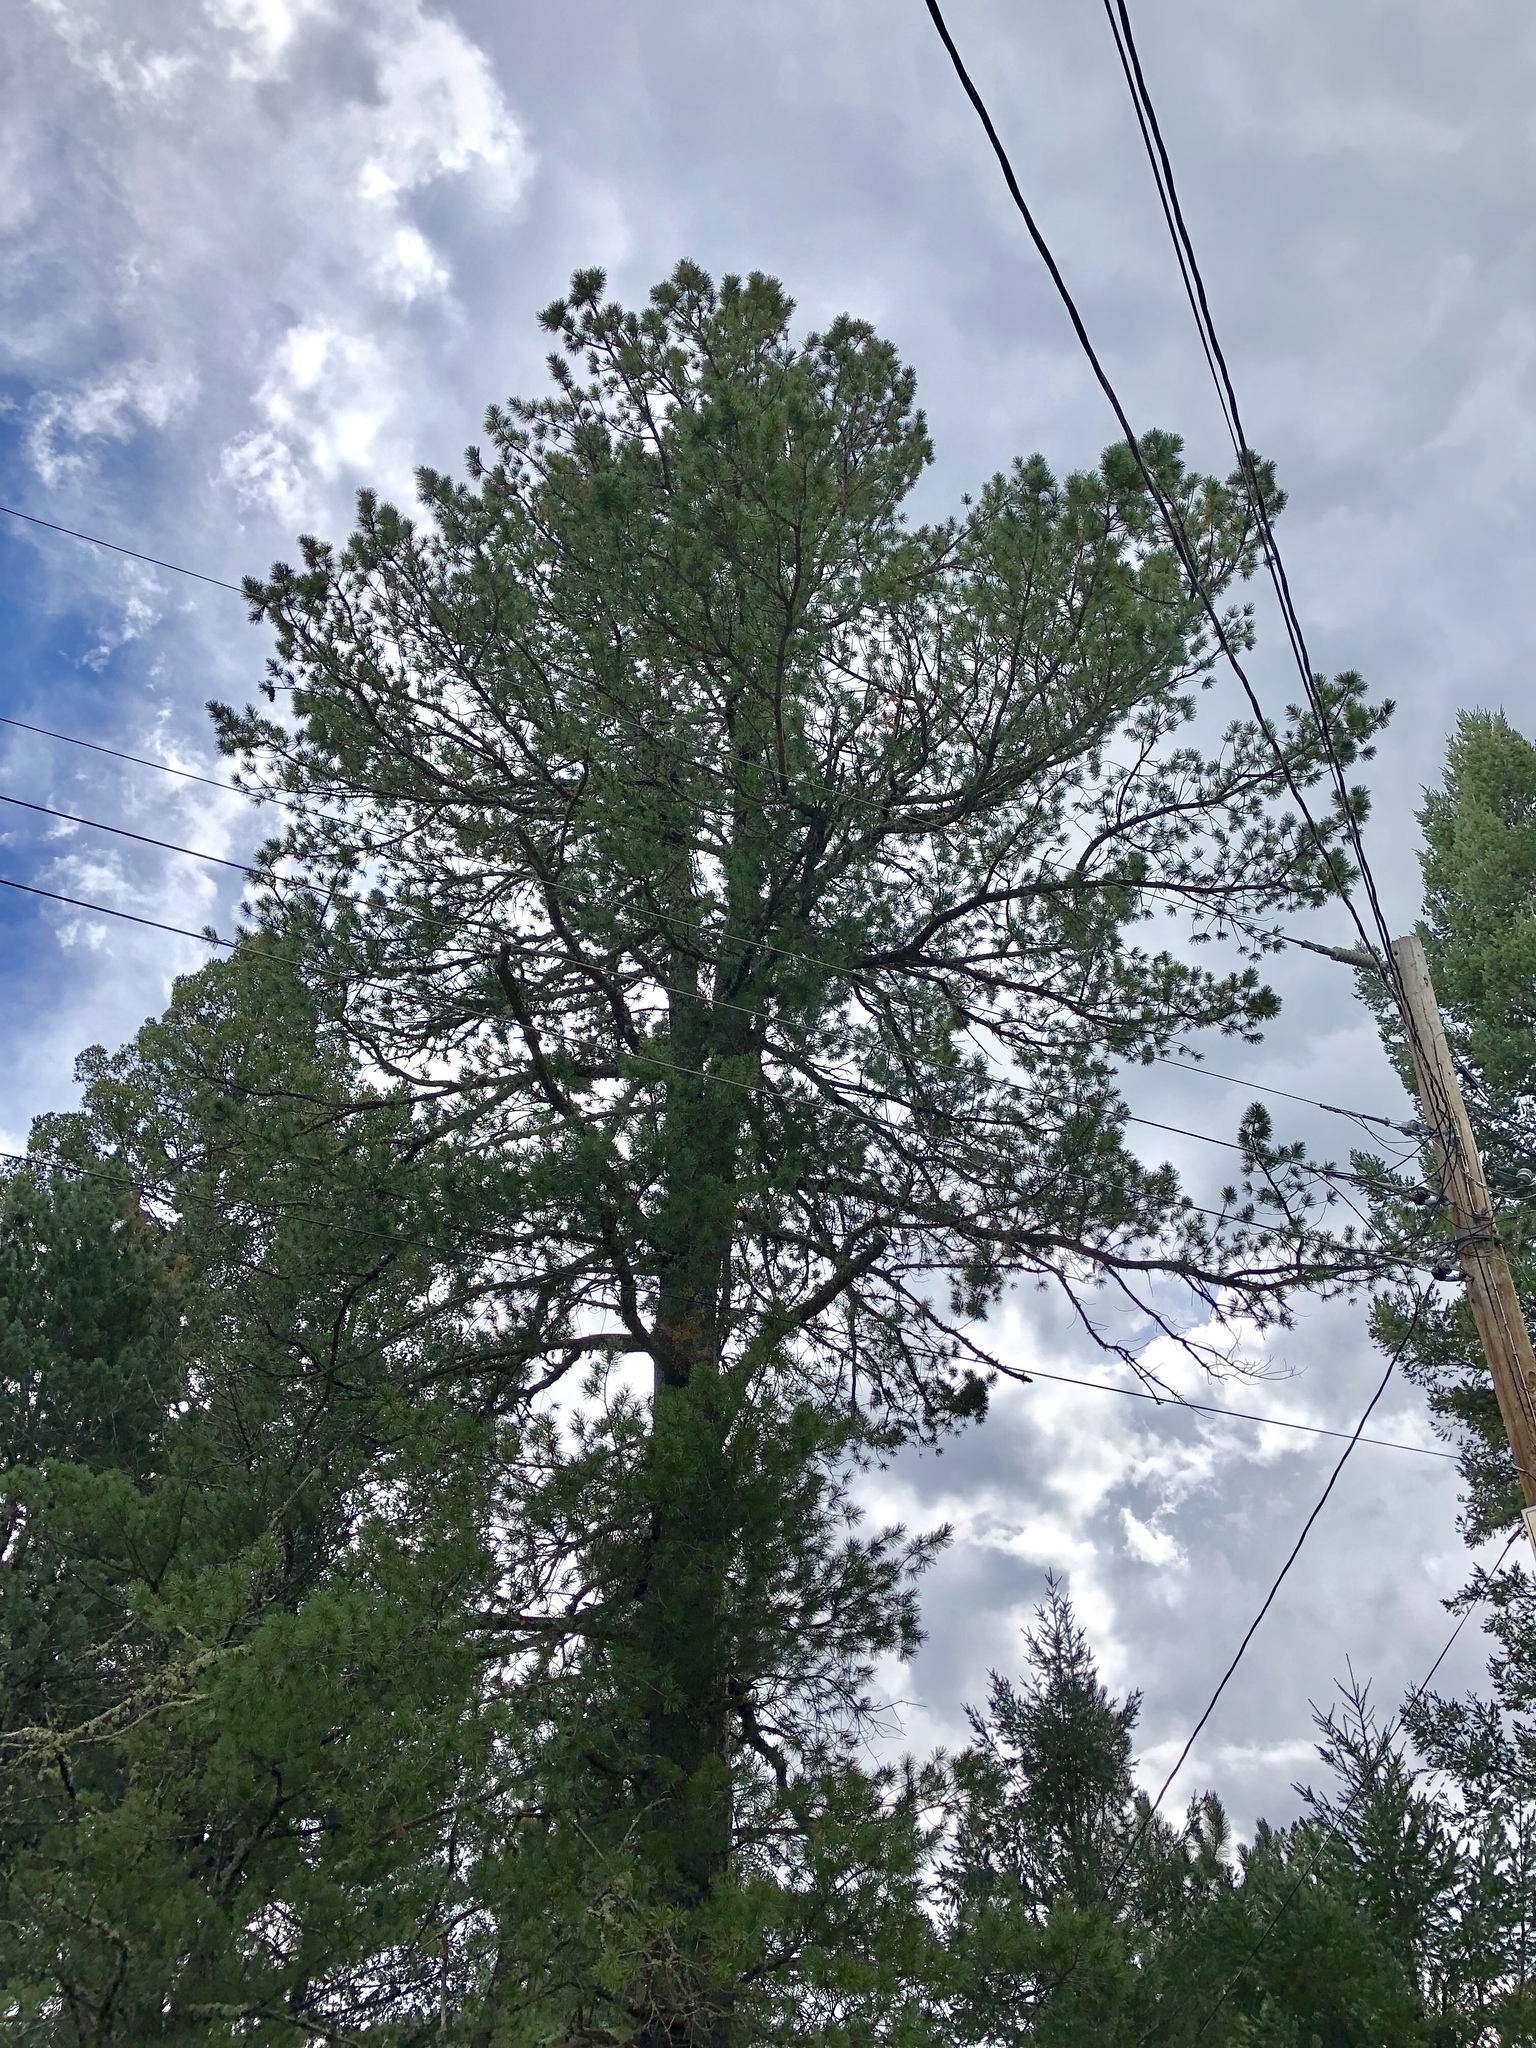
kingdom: Plantae
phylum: Tracheophyta
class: Pinopsida
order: Pinales
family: Pinaceae
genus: Pinus
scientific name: Pinus strobiformis
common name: Southwestern white pine
